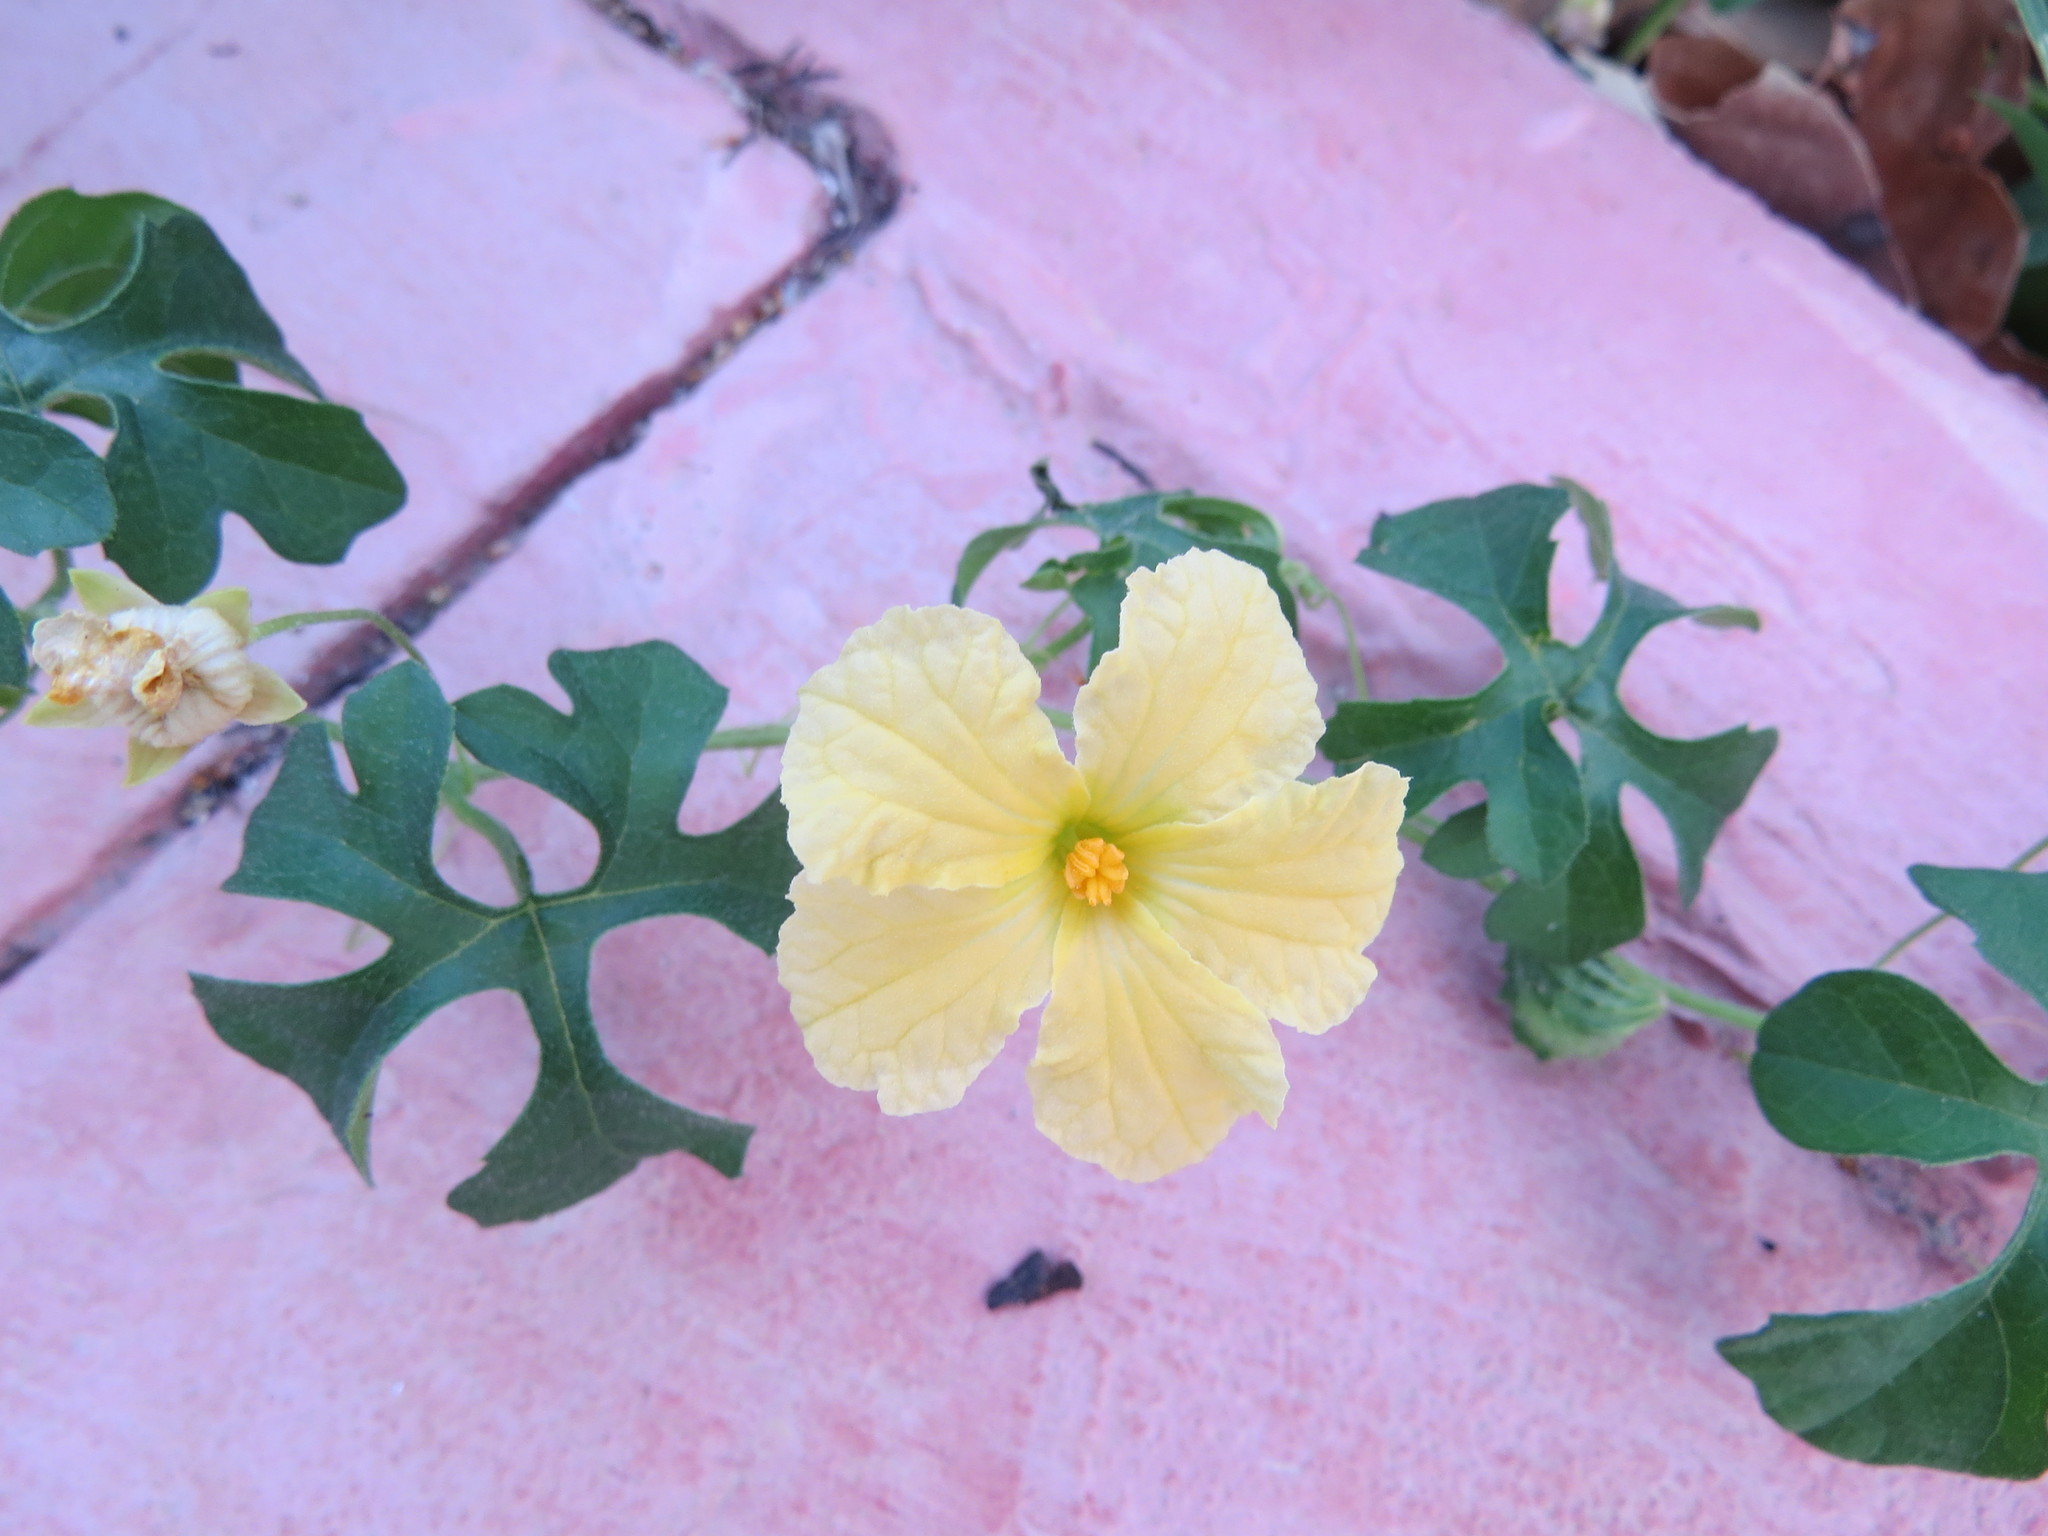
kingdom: Plantae
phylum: Tracheophyta
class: Magnoliopsida
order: Cucurbitales
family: Cucurbitaceae
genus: Momordica
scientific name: Momordica charantia
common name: Balsampear
